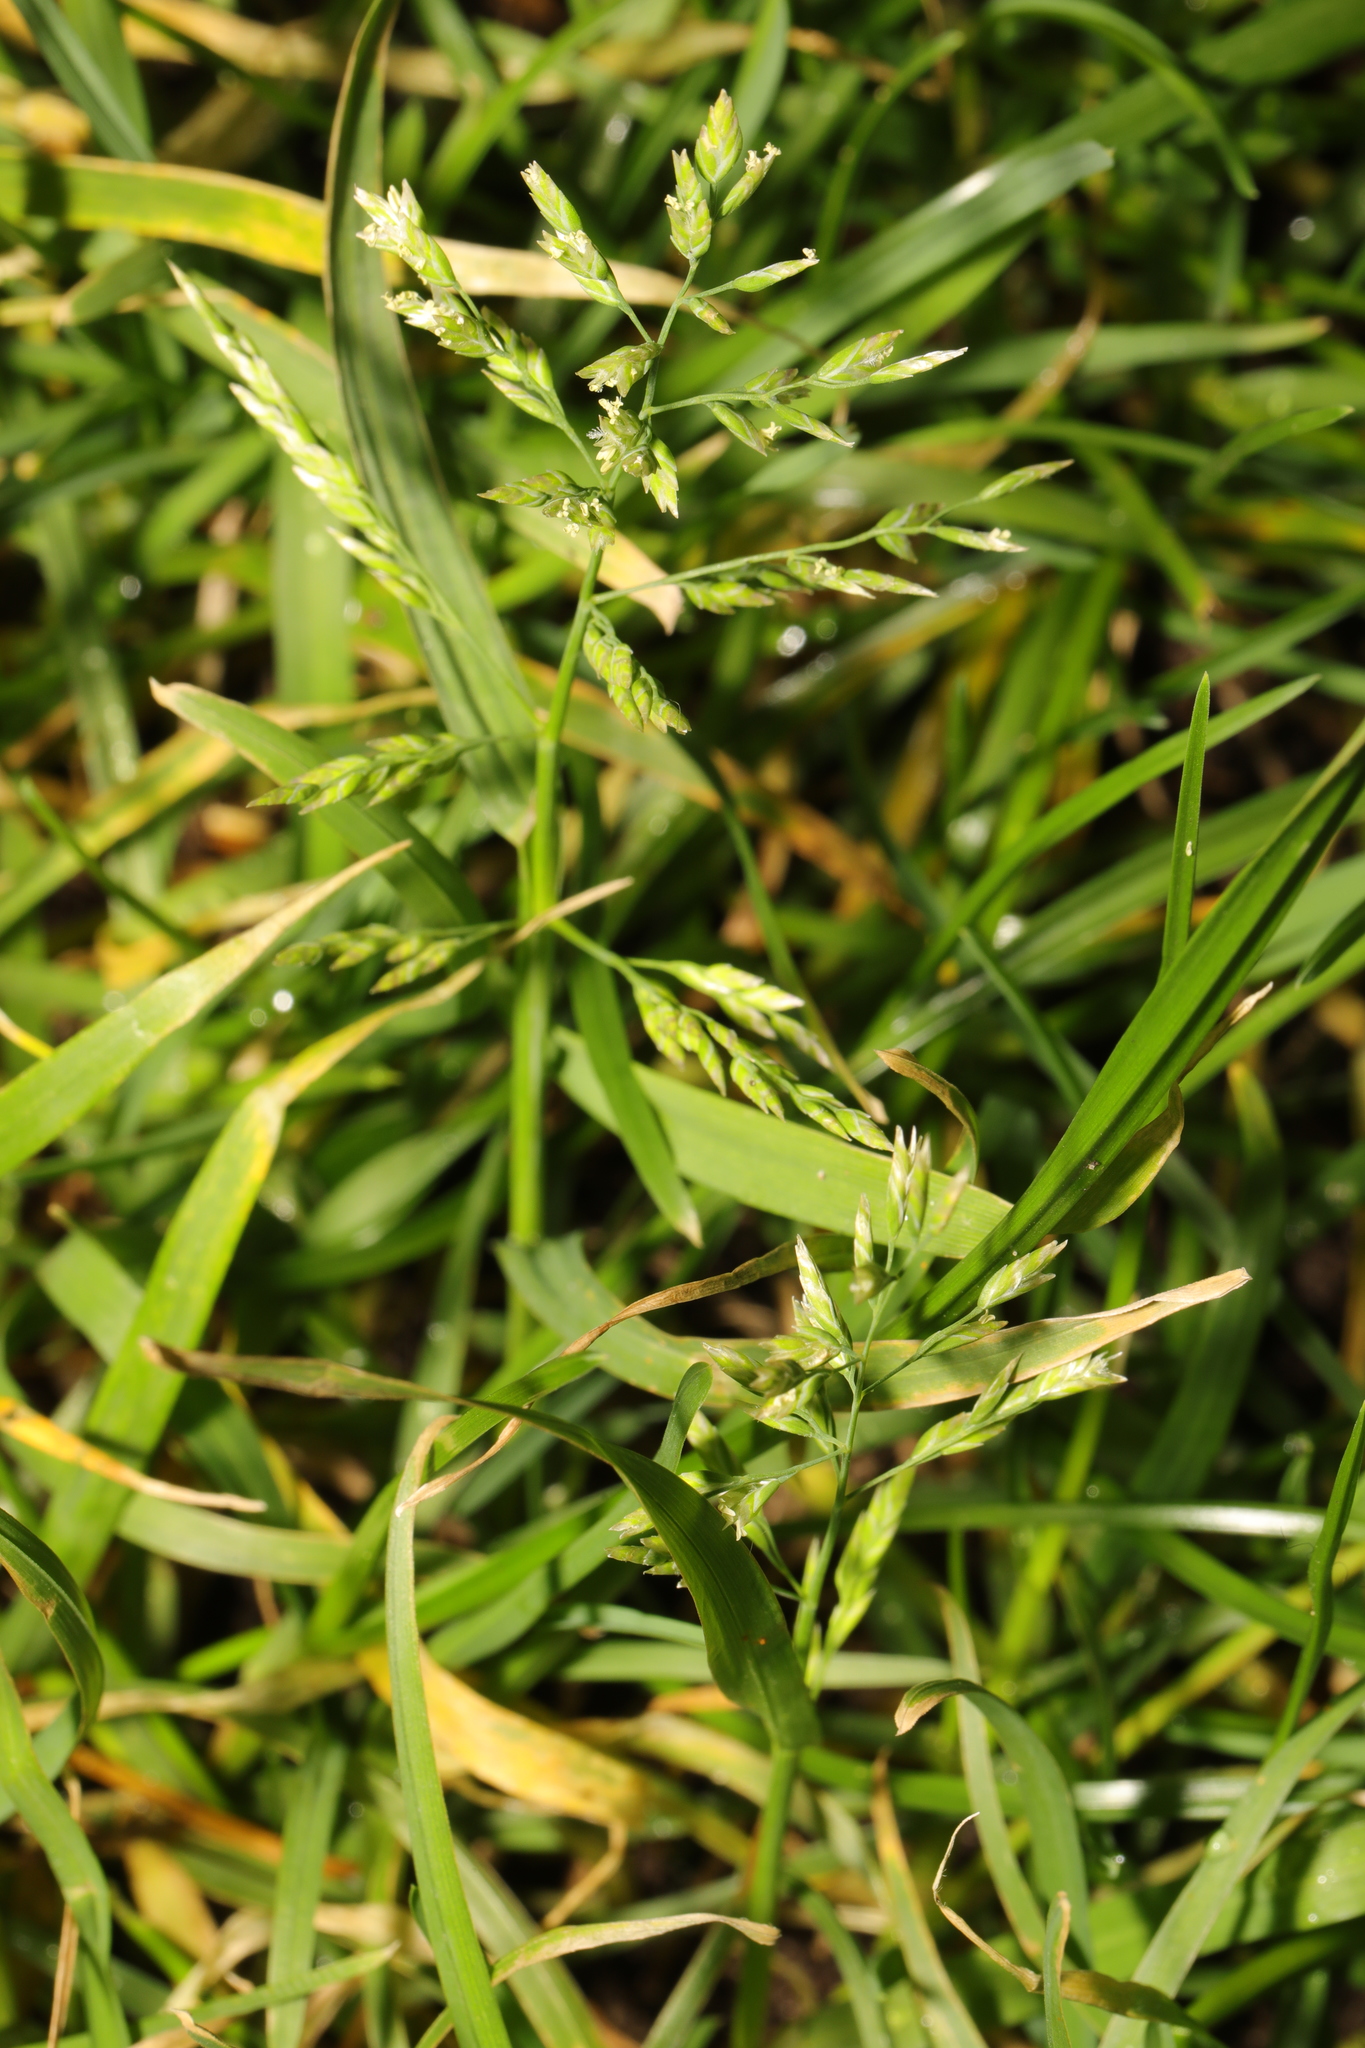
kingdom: Plantae
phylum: Tracheophyta
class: Liliopsida
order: Poales
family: Poaceae
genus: Poa
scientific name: Poa annua
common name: Annual bluegrass
